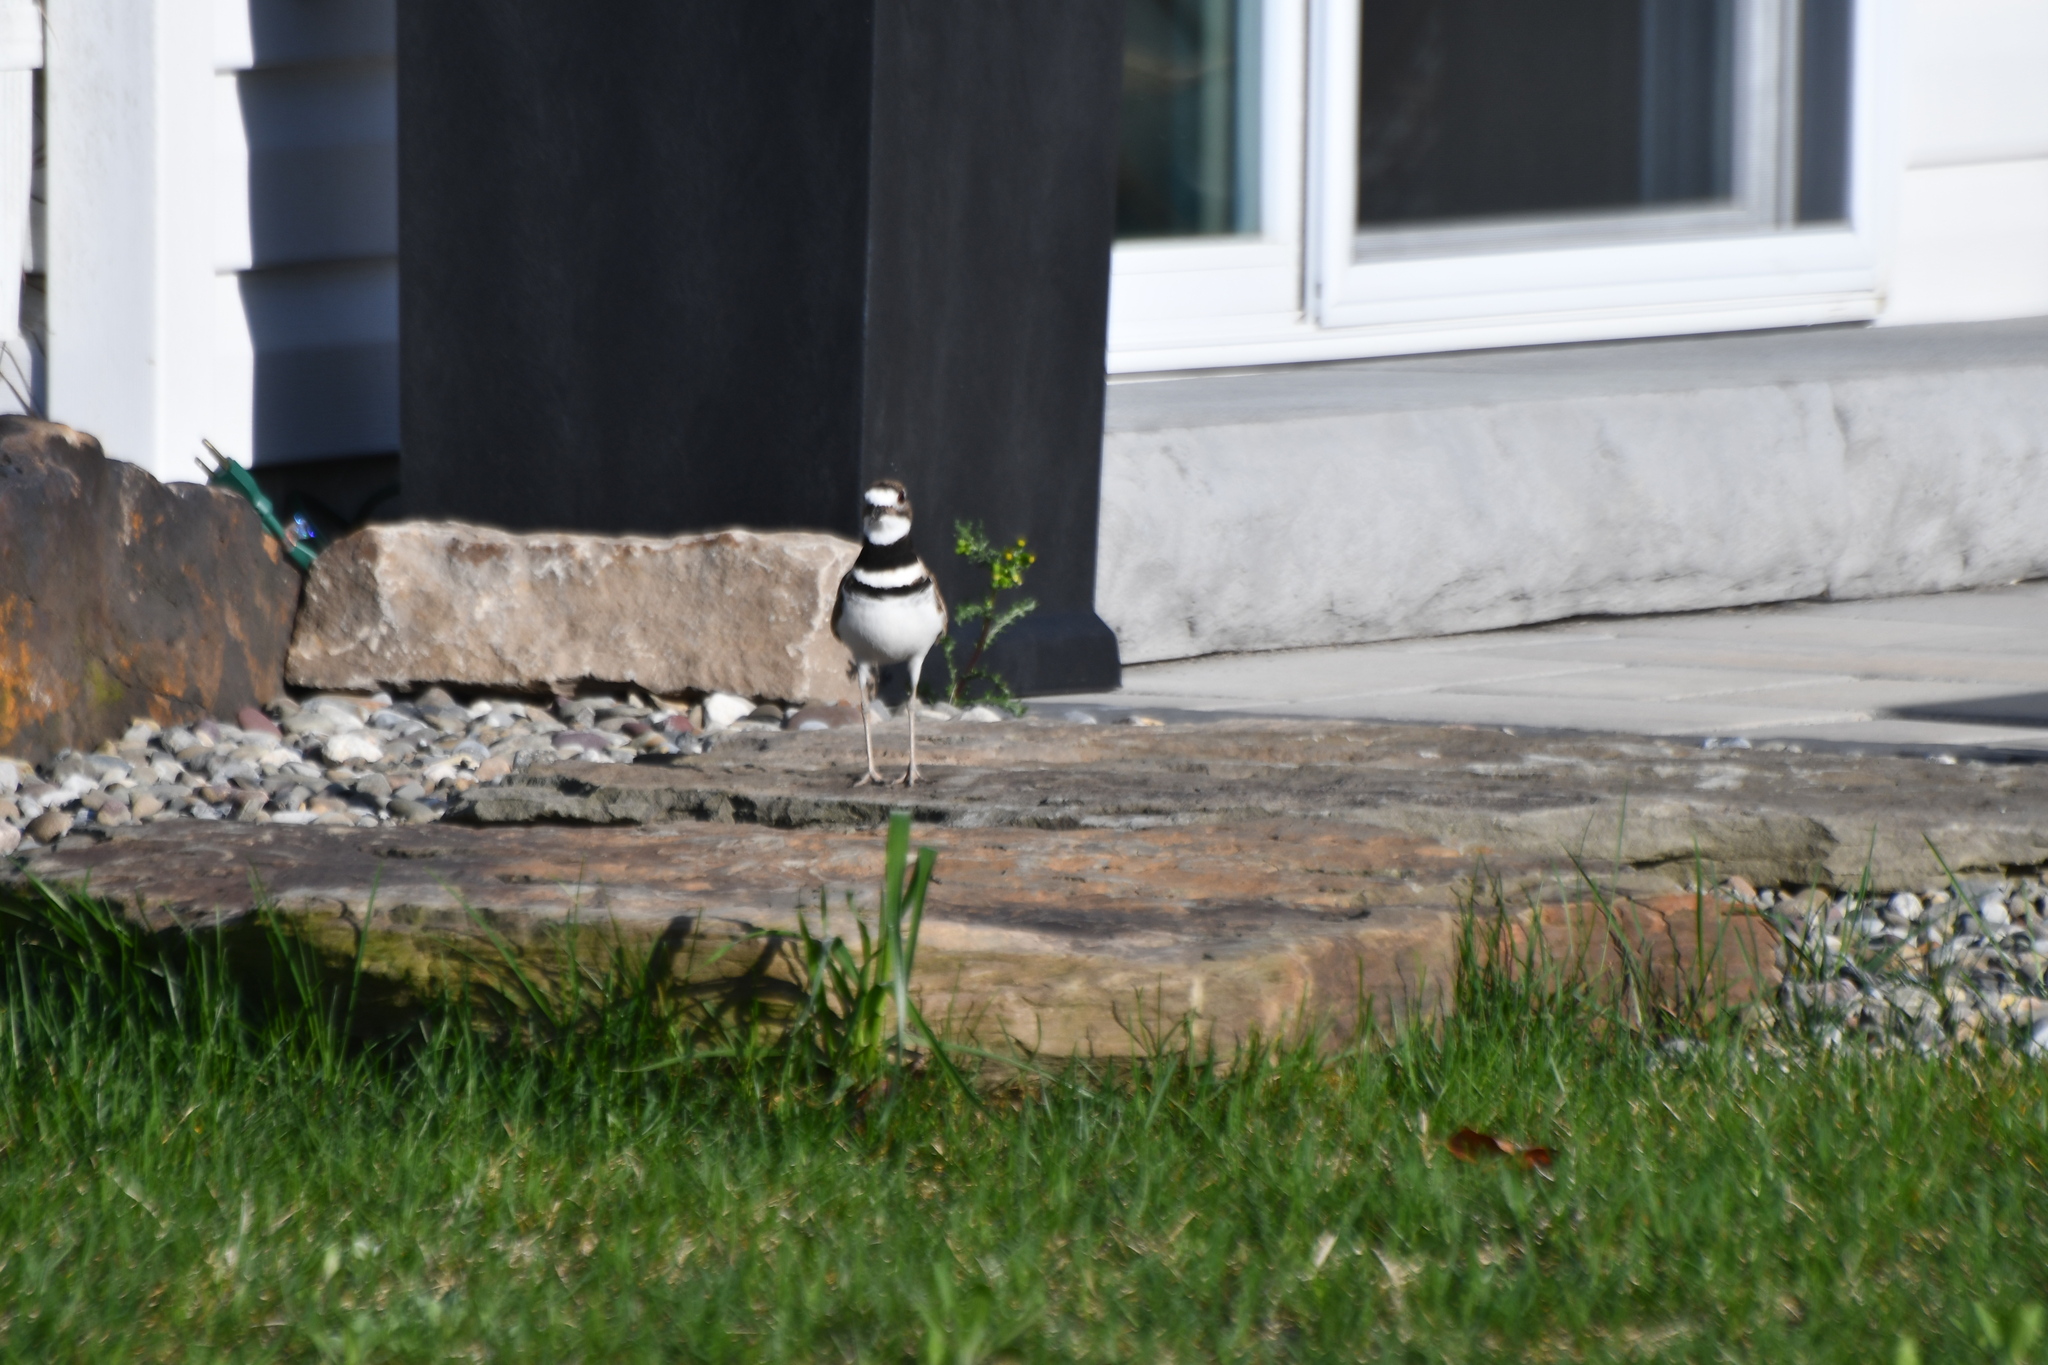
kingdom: Animalia
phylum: Chordata
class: Aves
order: Charadriiformes
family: Charadriidae
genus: Charadrius
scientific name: Charadrius vociferus
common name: Killdeer
